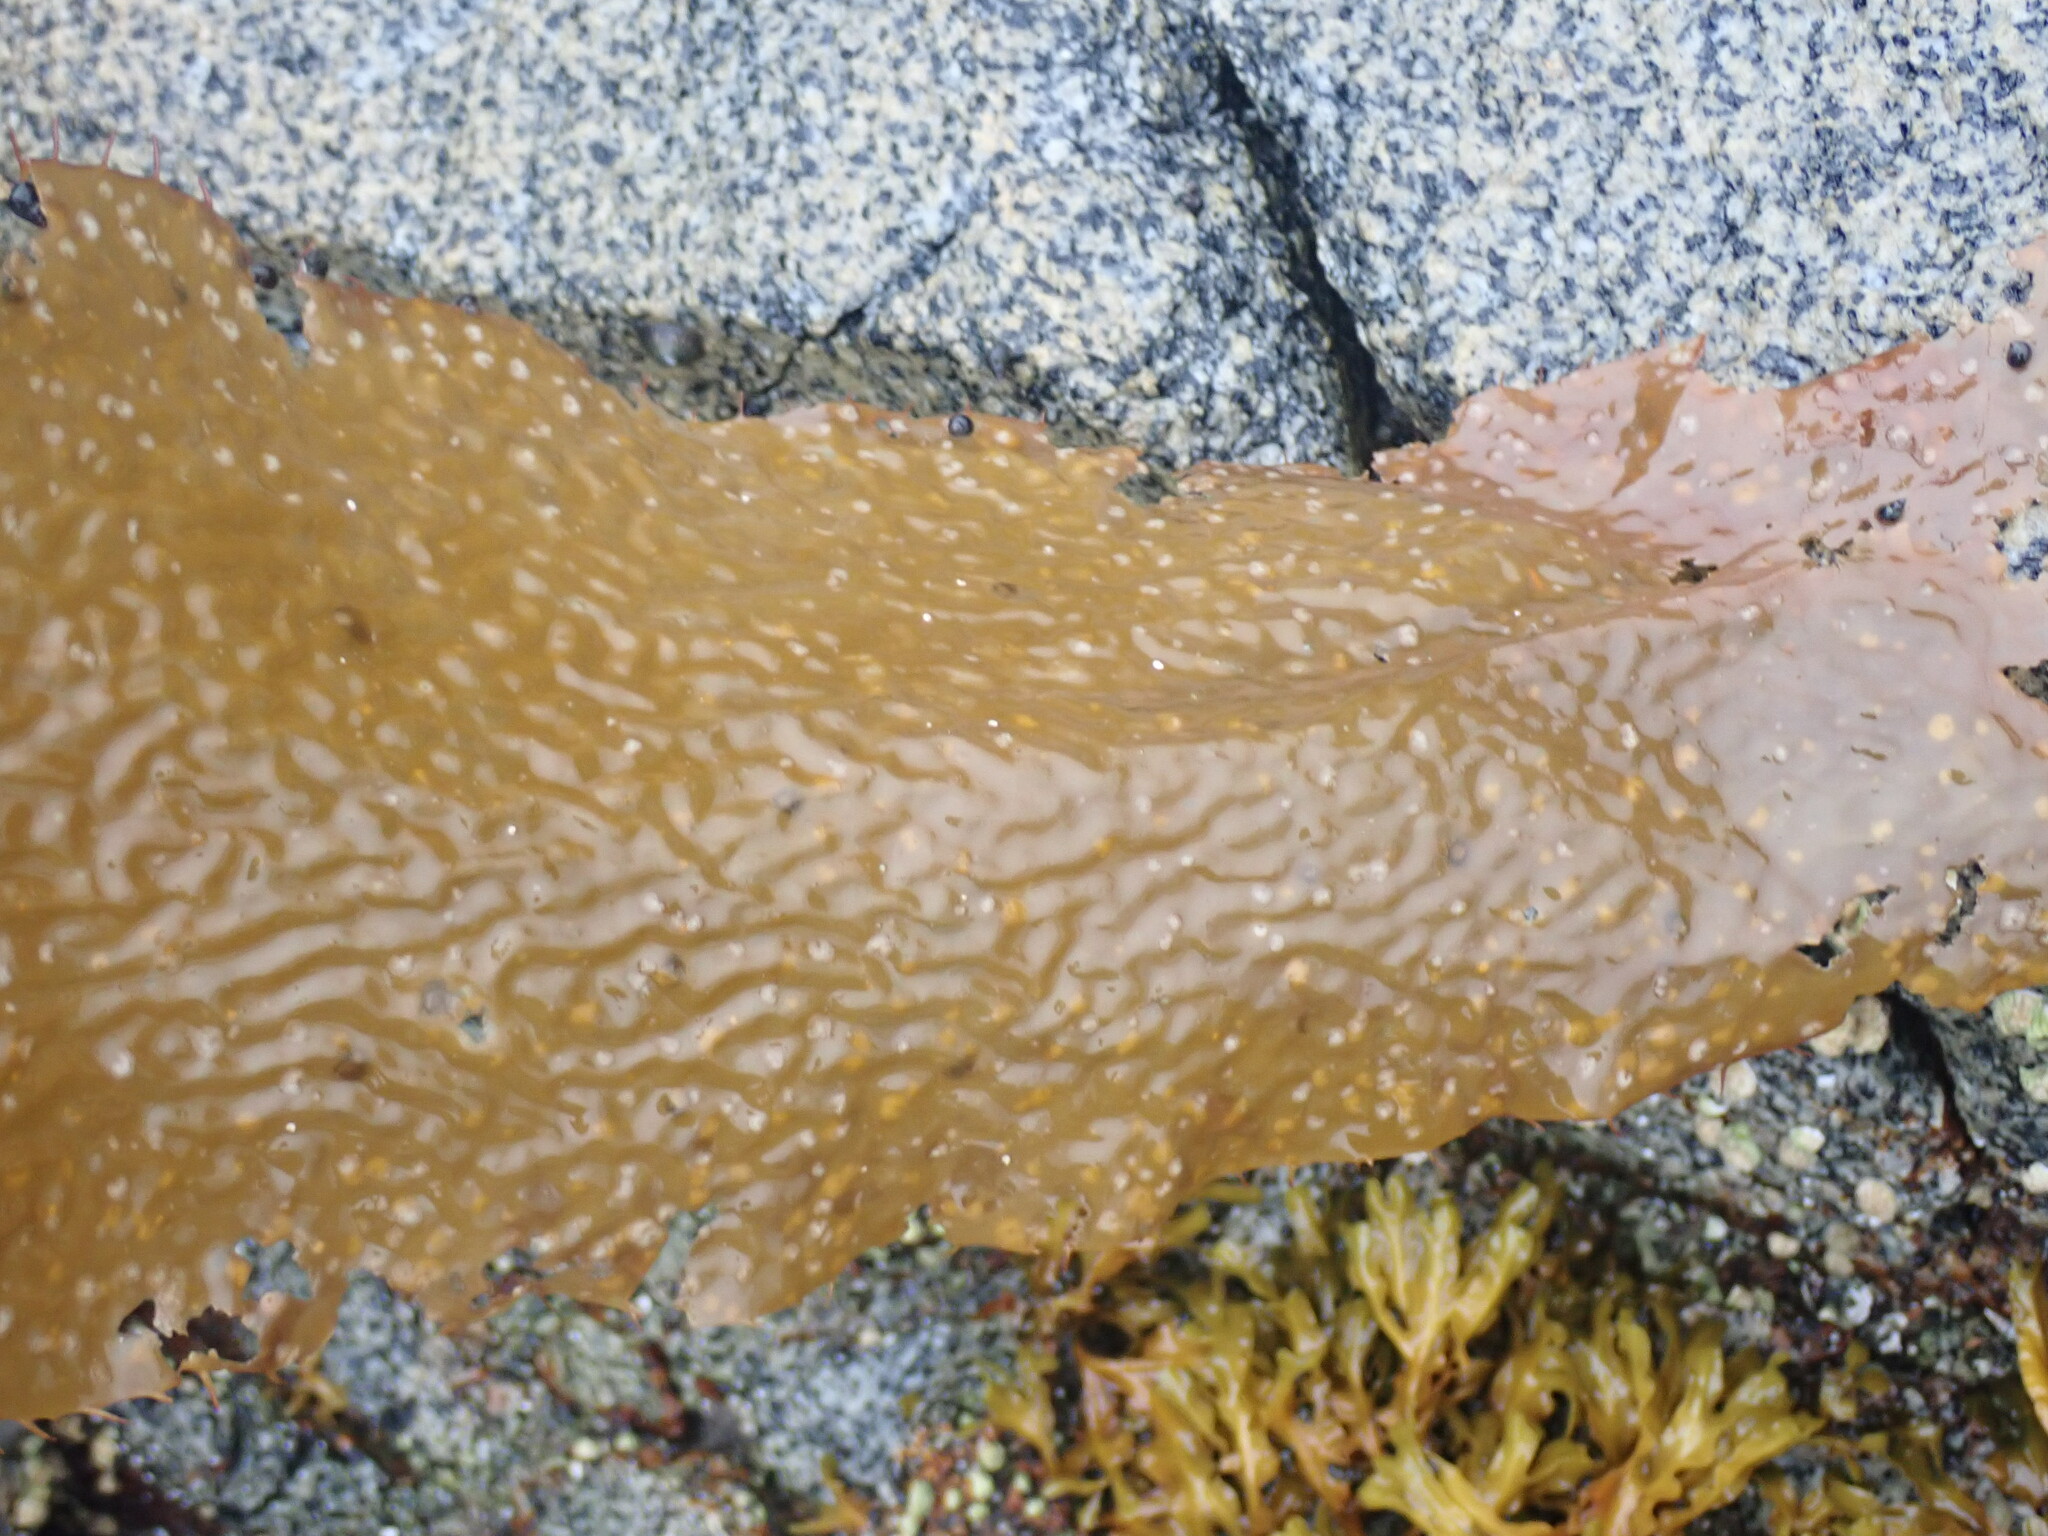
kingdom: Chromista
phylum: Ochrophyta
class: Phaeophyceae
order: Laminariales
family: Laminariaceae
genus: Macrocystis
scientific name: Macrocystis pyrifera
